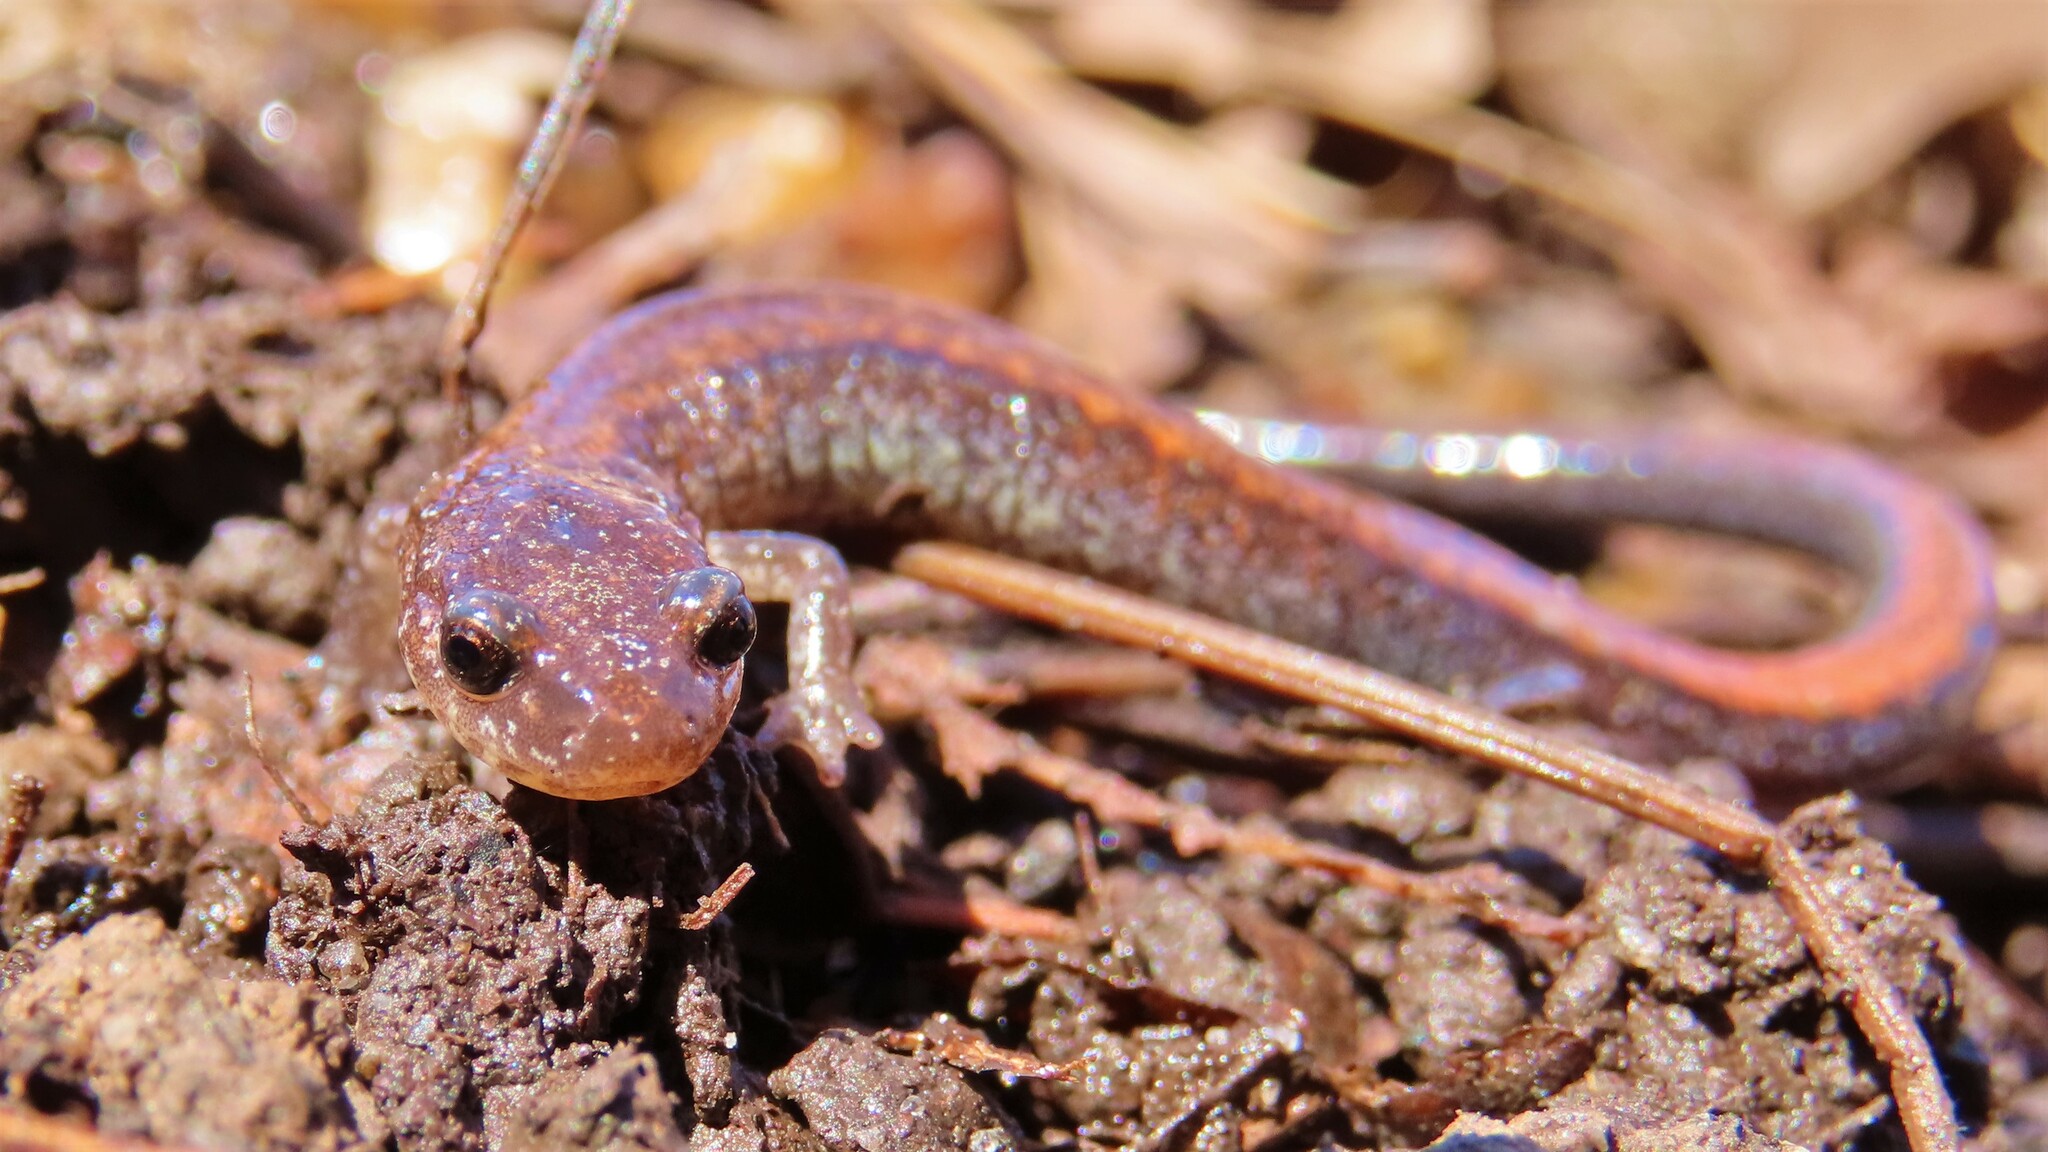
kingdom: Animalia
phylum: Chordata
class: Amphibia
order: Caudata
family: Plethodontidae
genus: Plethodon
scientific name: Plethodon cinereus
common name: Redback salamander
